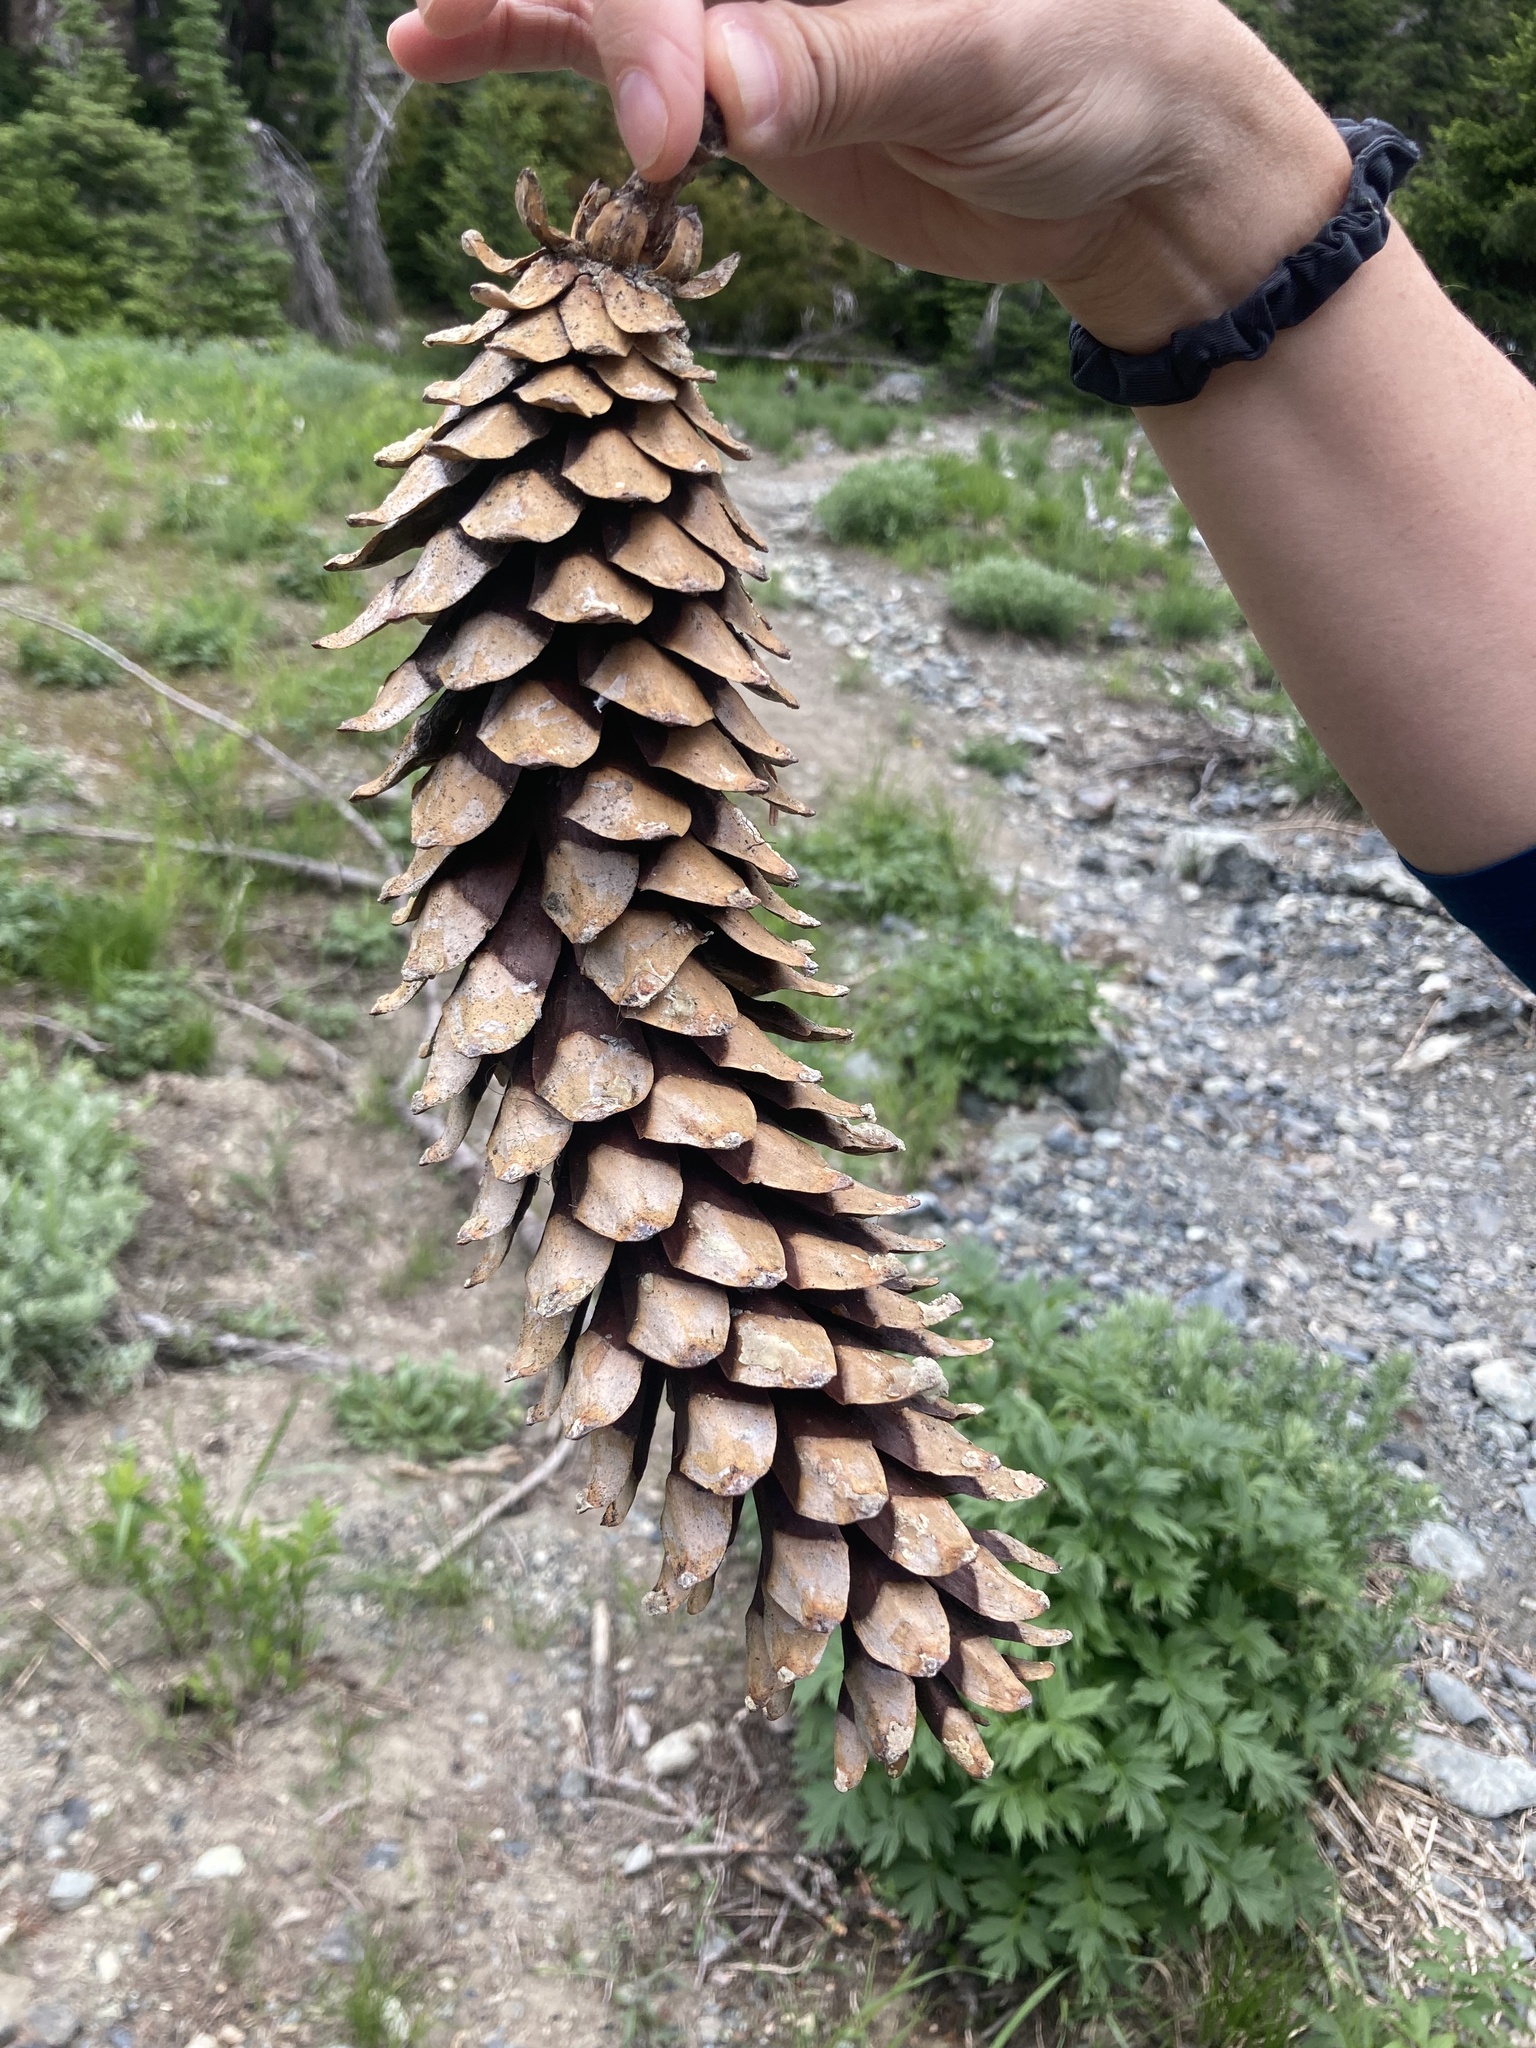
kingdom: Plantae
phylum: Tracheophyta
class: Pinopsida
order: Pinales
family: Pinaceae
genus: Pinus
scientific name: Pinus monticola
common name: Western white pine
